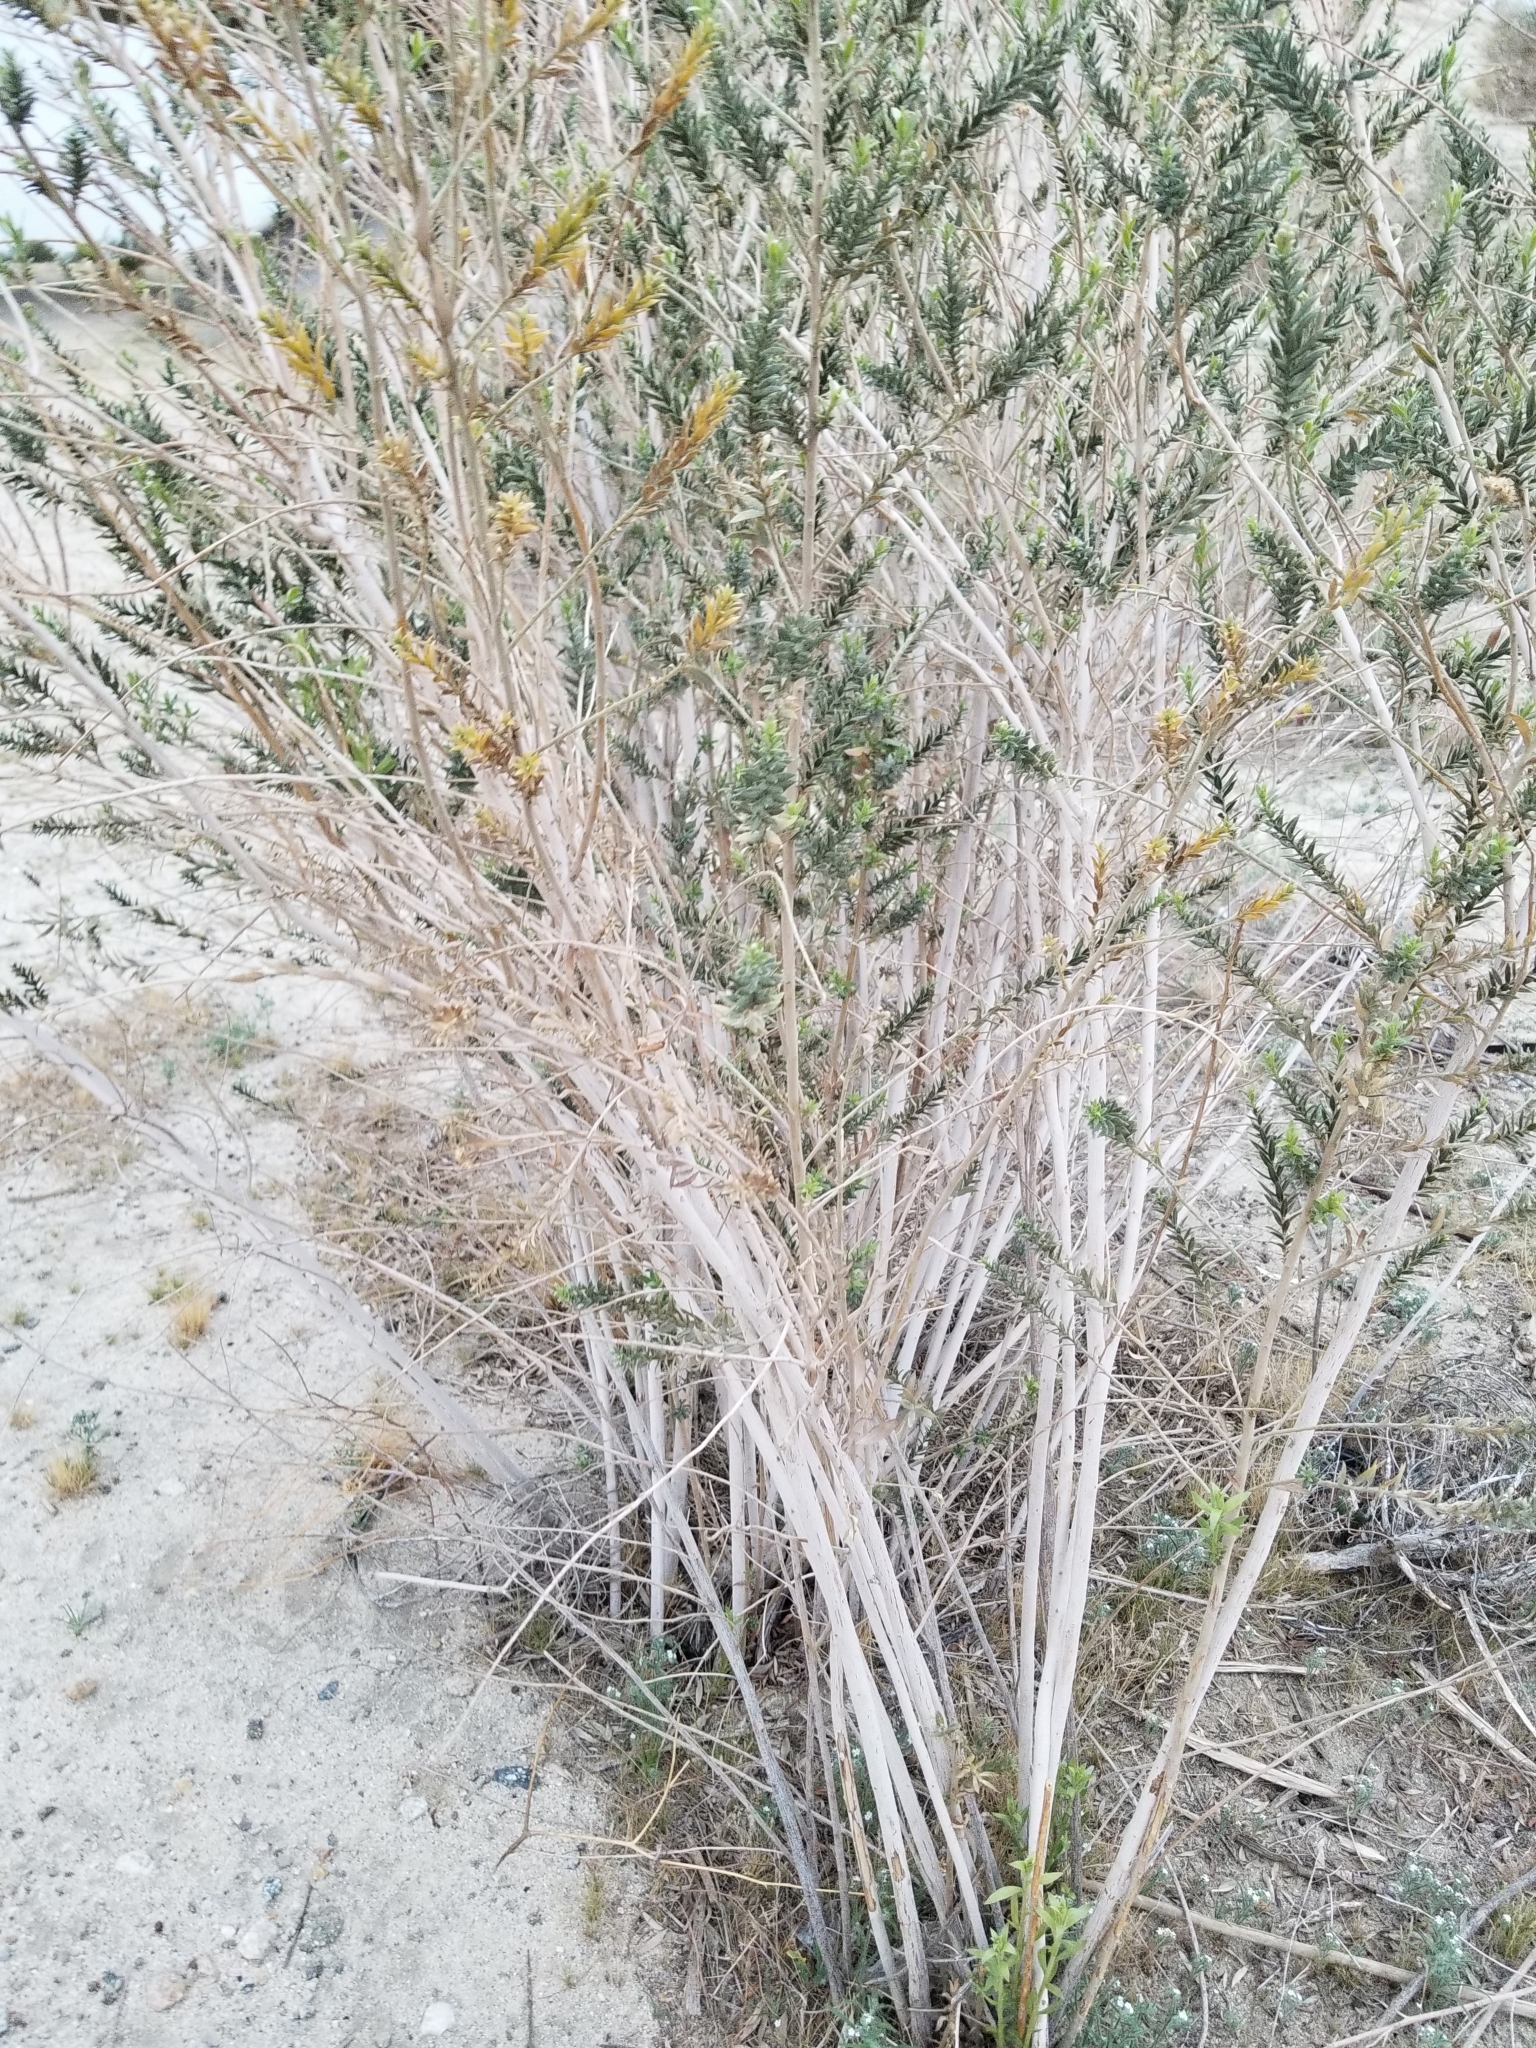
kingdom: Plantae
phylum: Tracheophyta
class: Magnoliopsida
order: Asterales
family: Asteraceae
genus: Pluchea
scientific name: Pluchea sericea
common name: Arrow-weed
